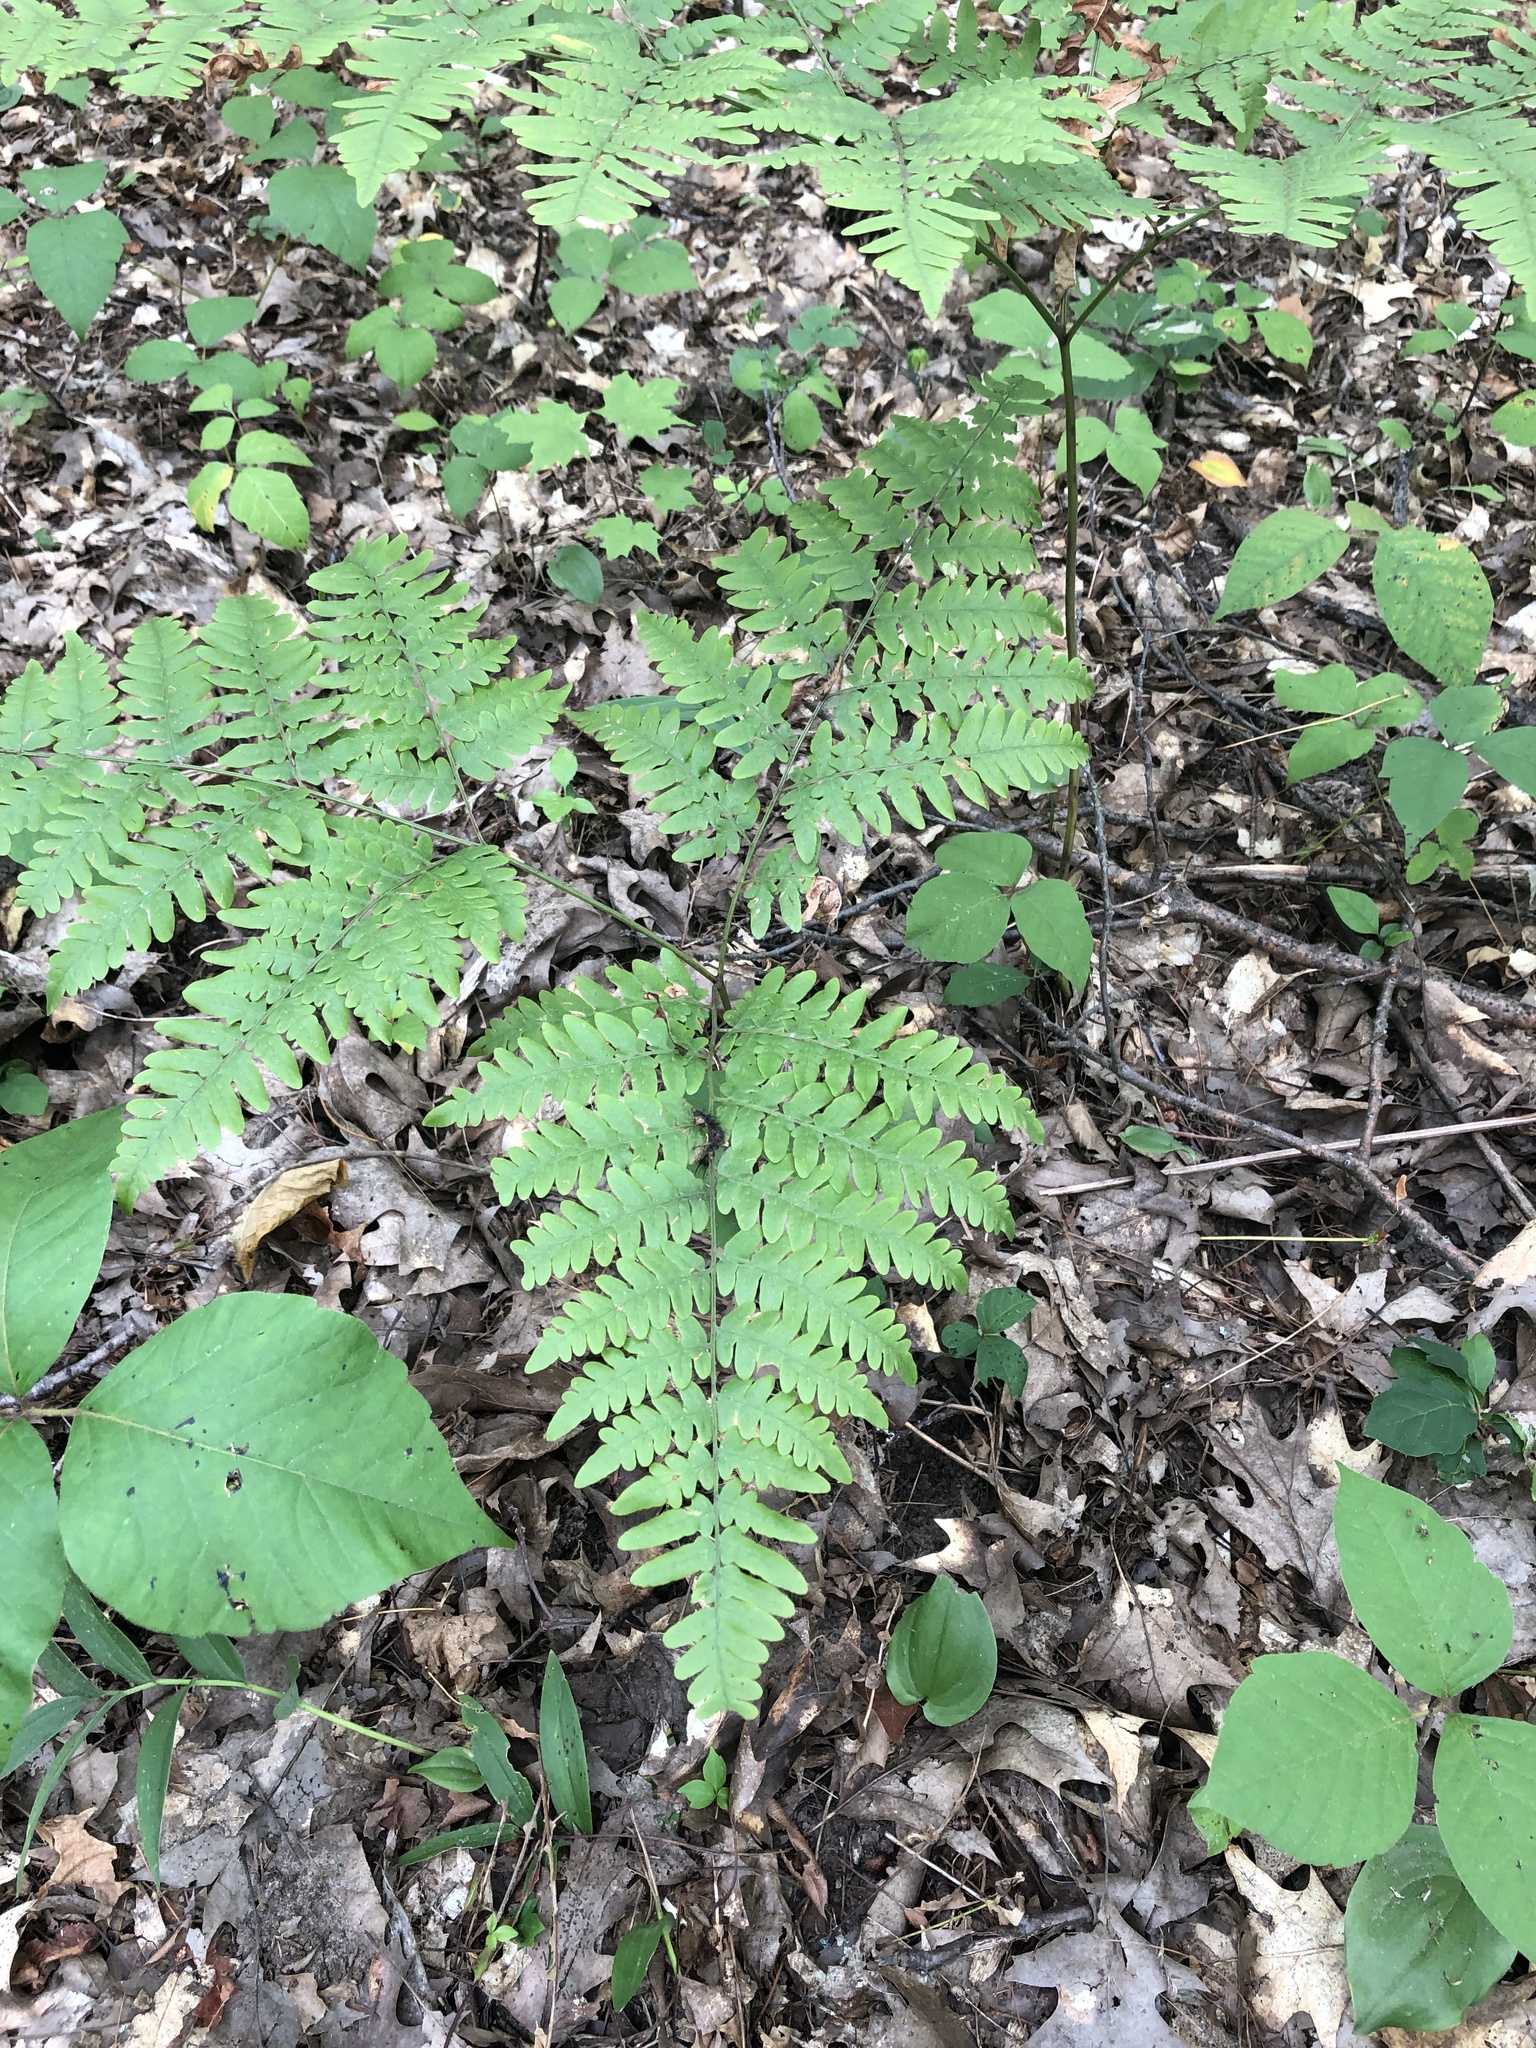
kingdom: Plantae
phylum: Tracheophyta
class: Polypodiopsida
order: Polypodiales
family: Dennstaedtiaceae
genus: Pteridium
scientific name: Pteridium aquilinum
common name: Bracken
